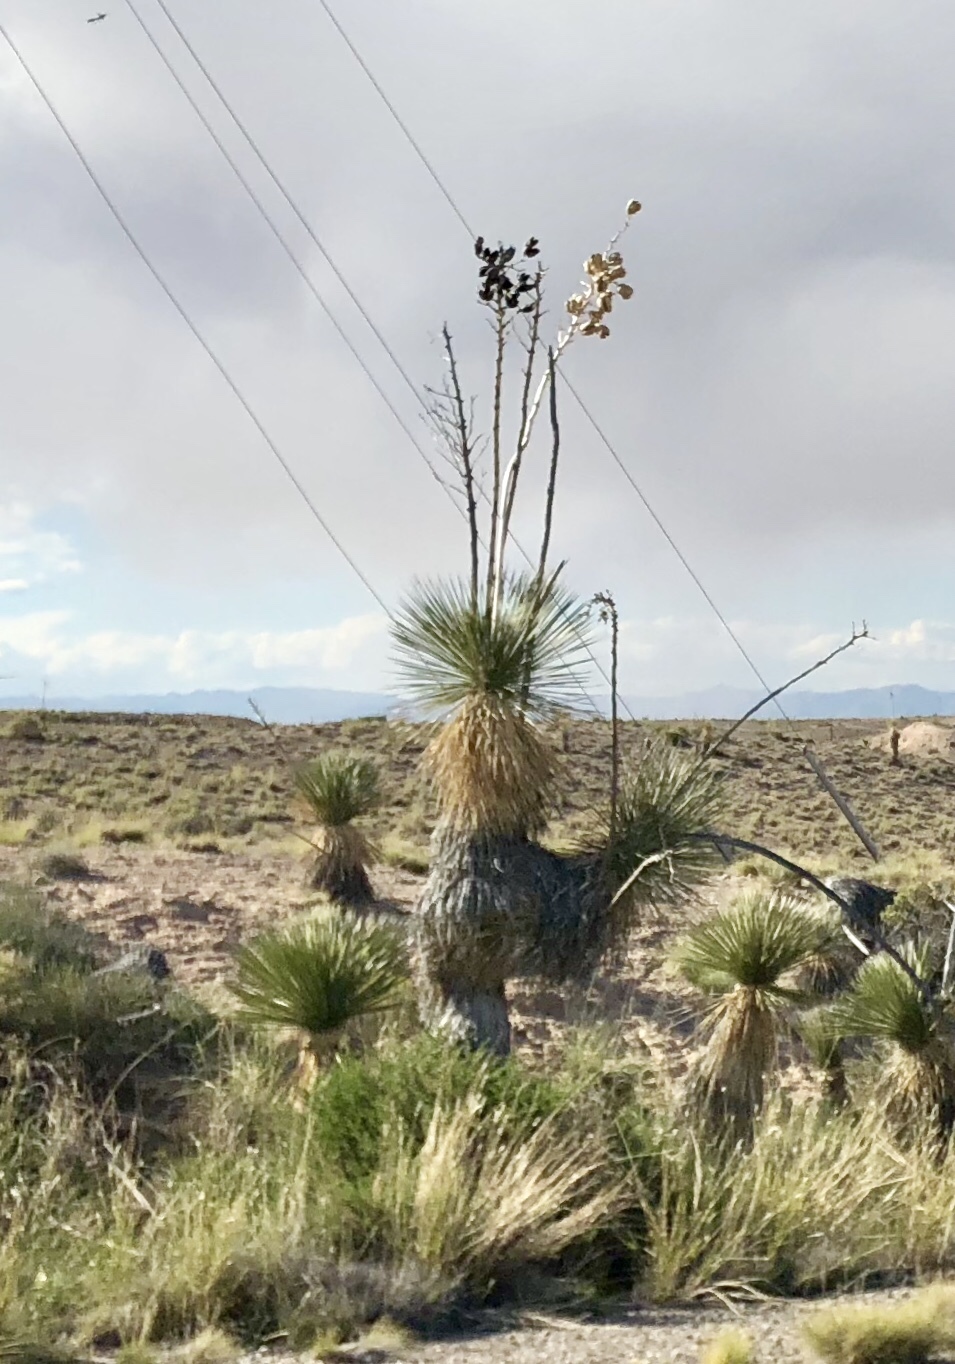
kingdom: Plantae
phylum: Tracheophyta
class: Liliopsida
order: Asparagales
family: Asparagaceae
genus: Yucca
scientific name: Yucca elata
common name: Palmella
